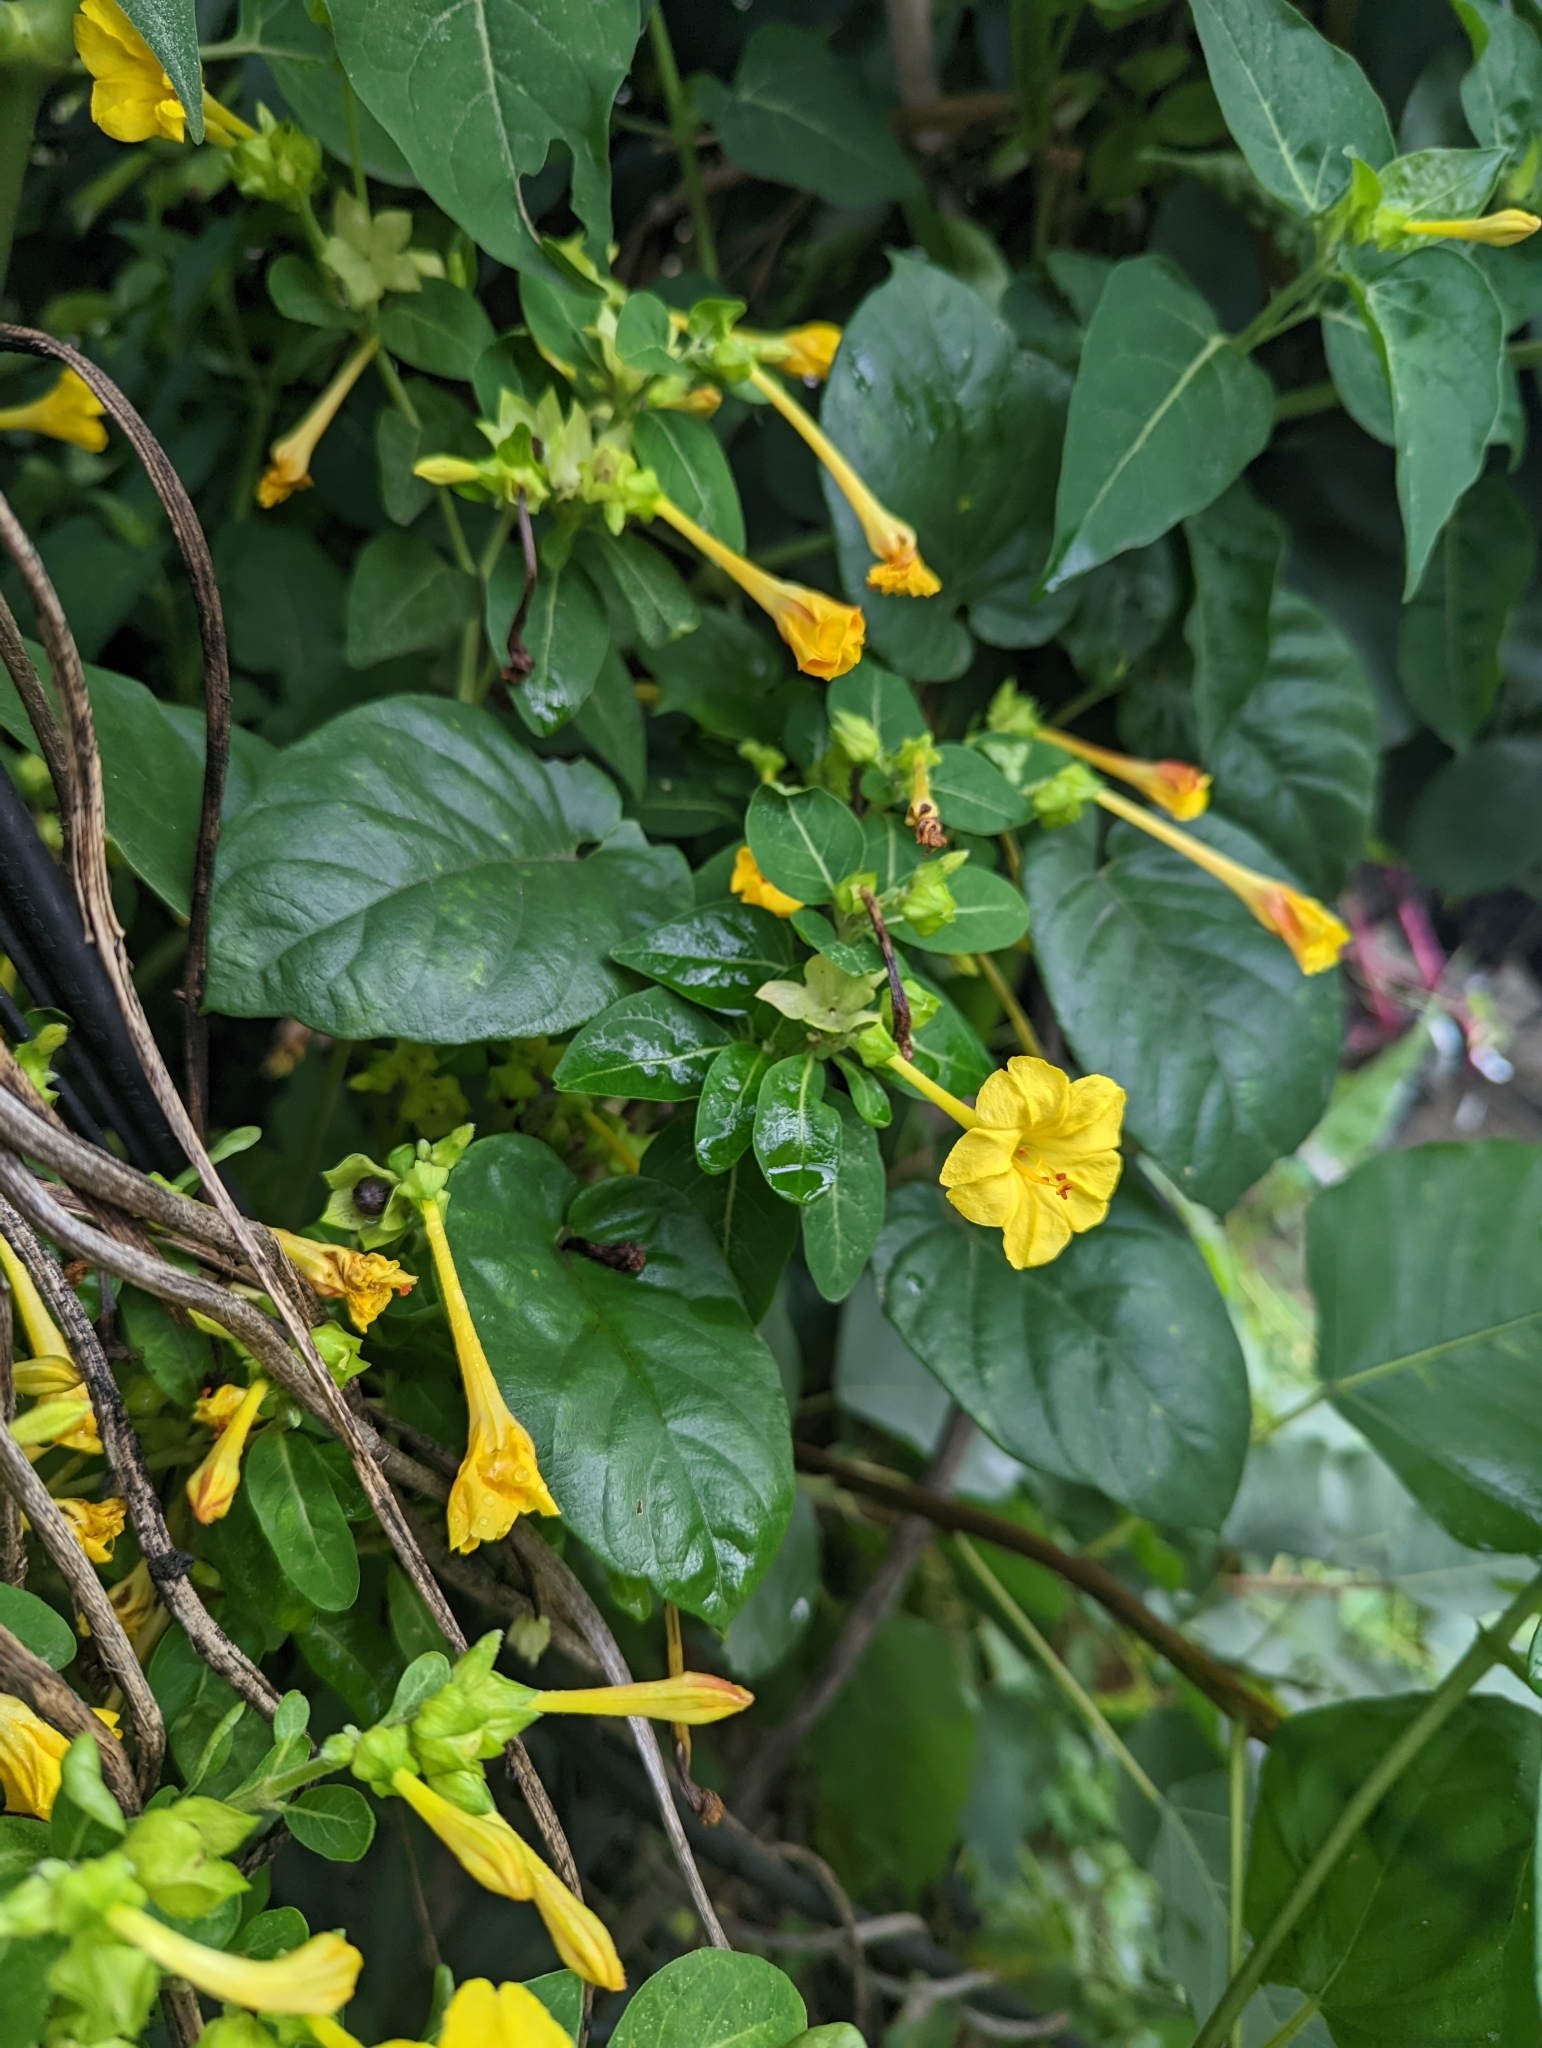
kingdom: Plantae
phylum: Tracheophyta
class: Magnoliopsida
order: Caryophyllales
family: Nyctaginaceae
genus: Mirabilis
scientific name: Mirabilis jalapa
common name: Marvel-of-peru
